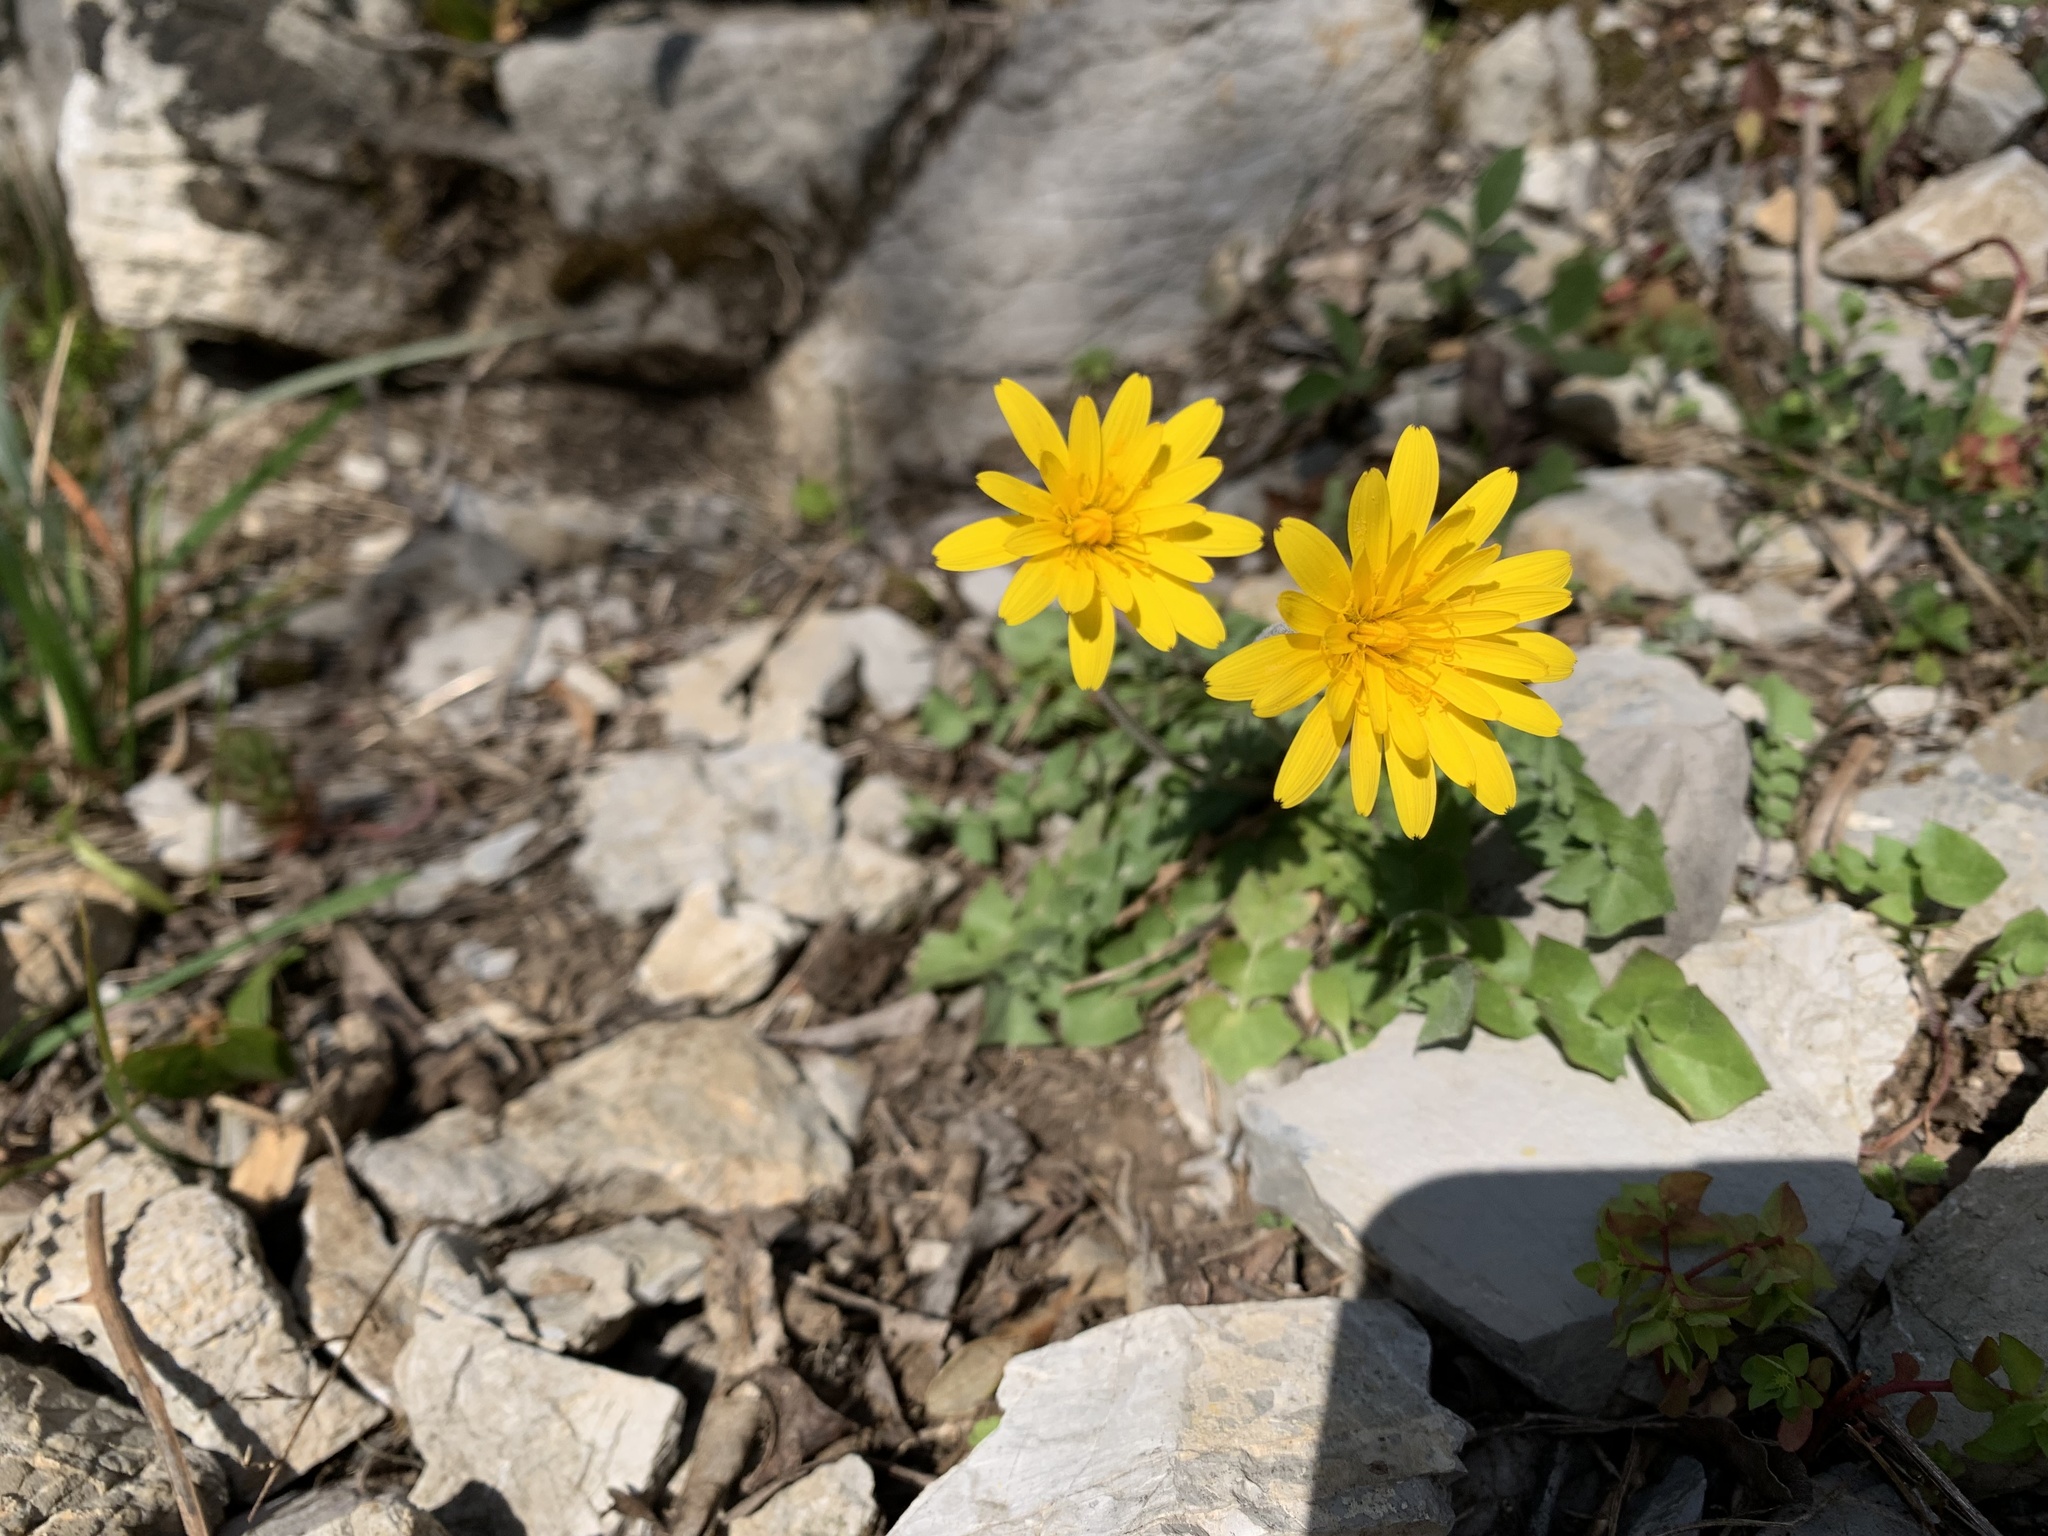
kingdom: Plantae
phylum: Tracheophyta
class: Magnoliopsida
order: Asterales
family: Asteraceae
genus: Hyoseris
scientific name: Hyoseris radiata
